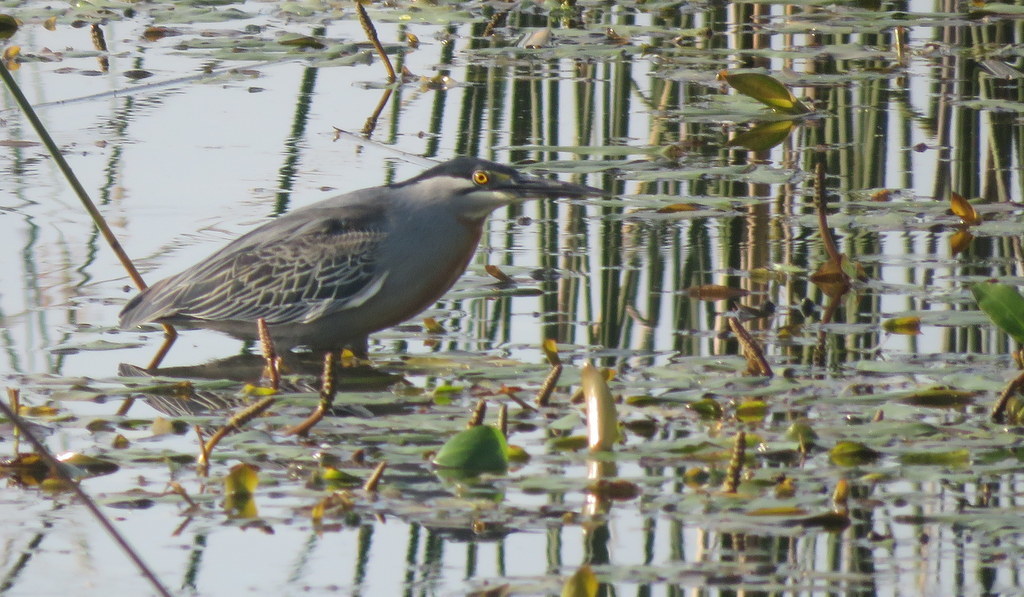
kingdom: Animalia
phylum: Chordata
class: Aves
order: Pelecaniformes
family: Ardeidae
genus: Butorides
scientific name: Butorides striata
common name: Striated heron
